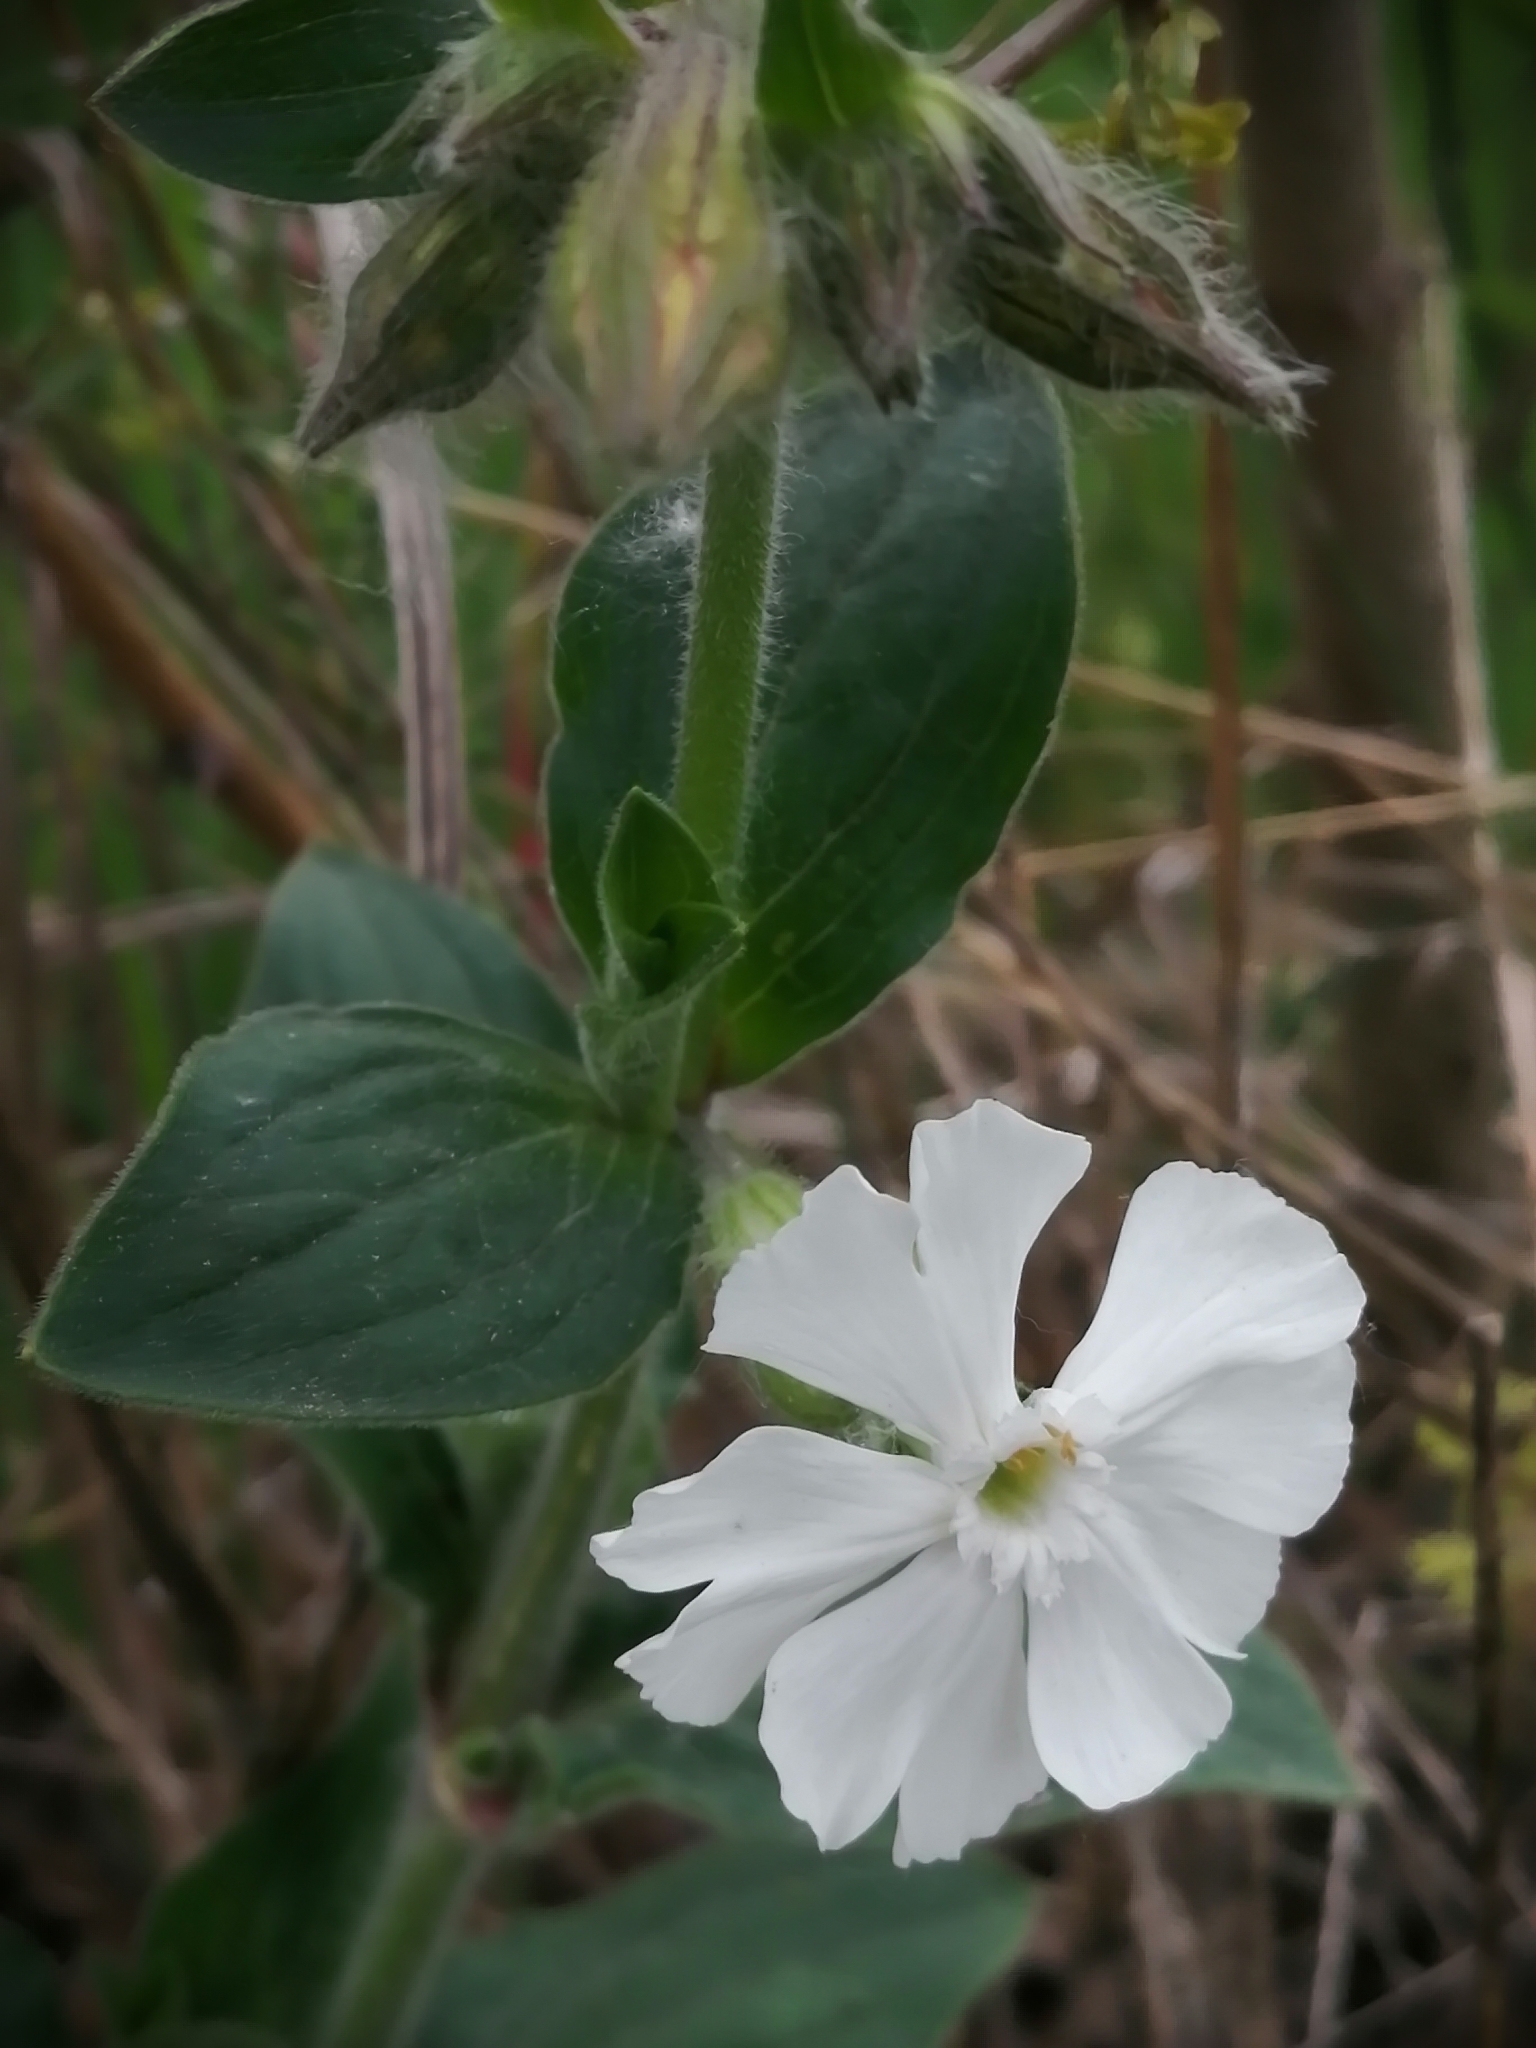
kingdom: Plantae
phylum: Tracheophyta
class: Magnoliopsida
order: Caryophyllales
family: Caryophyllaceae
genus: Silene
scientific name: Silene latifolia
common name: White campion
